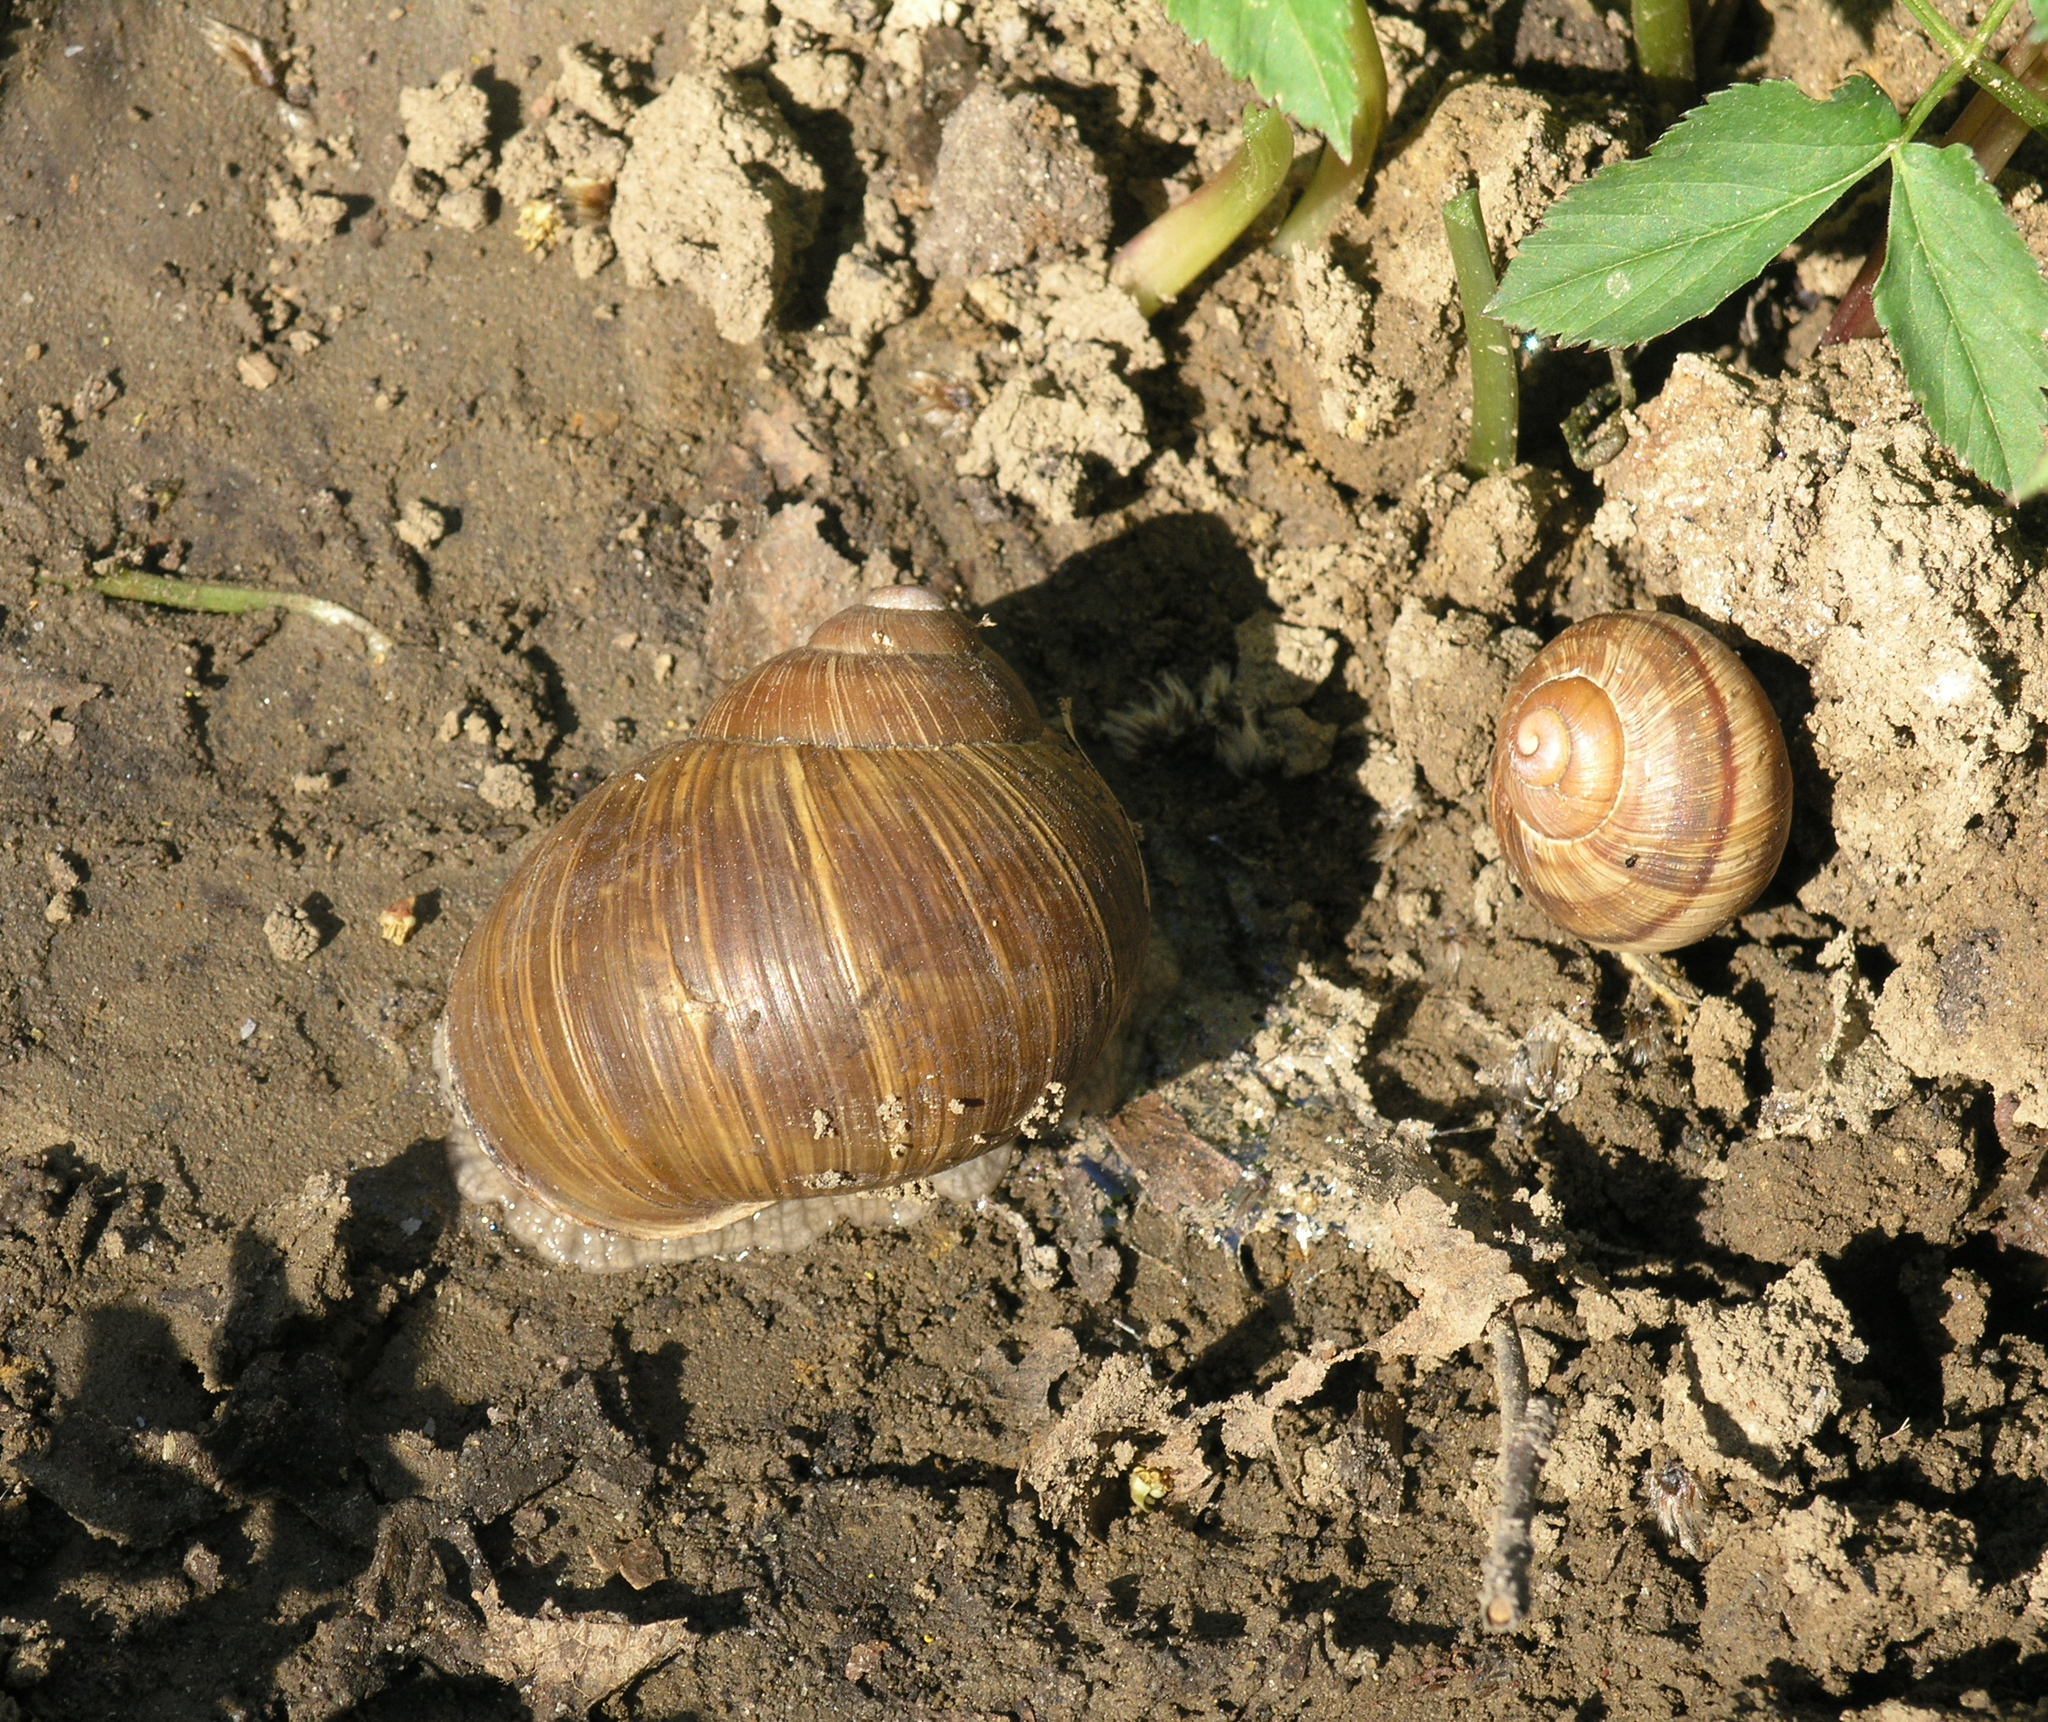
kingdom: Animalia
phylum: Mollusca
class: Gastropoda
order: Stylommatophora
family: Helicidae
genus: Helix
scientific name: Helix pomatia
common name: Roman snail
